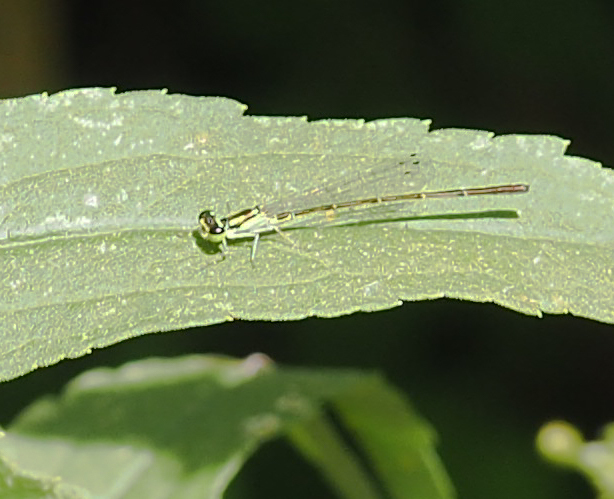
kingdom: Animalia
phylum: Arthropoda
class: Insecta
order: Odonata
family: Coenagrionidae
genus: Ischnura
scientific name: Ischnura posita
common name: Fragile forktail
